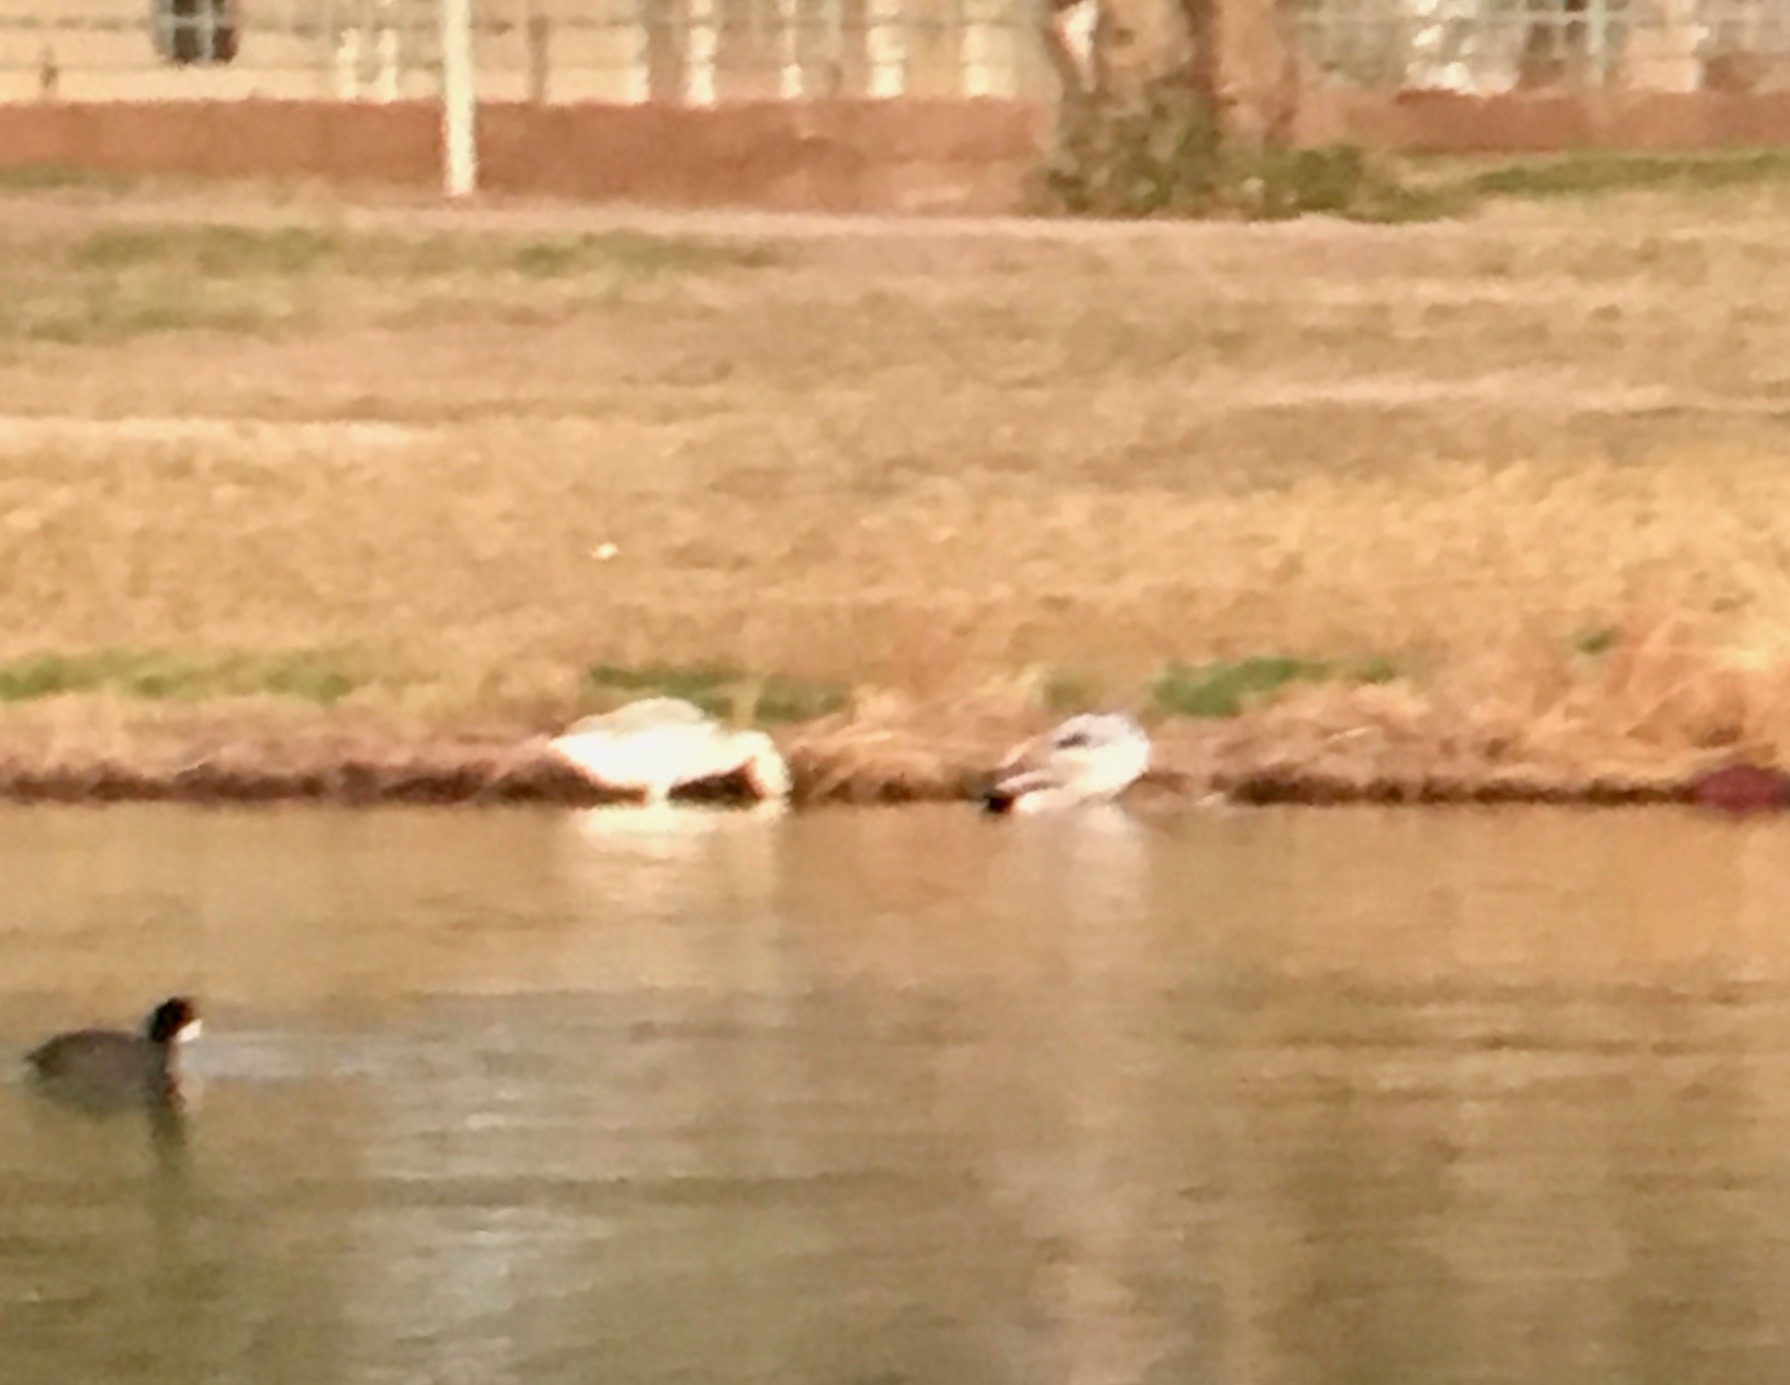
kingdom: Animalia
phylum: Chordata
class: Aves
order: Gruiformes
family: Rallidae
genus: Fulica
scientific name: Fulica americana
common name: American coot
